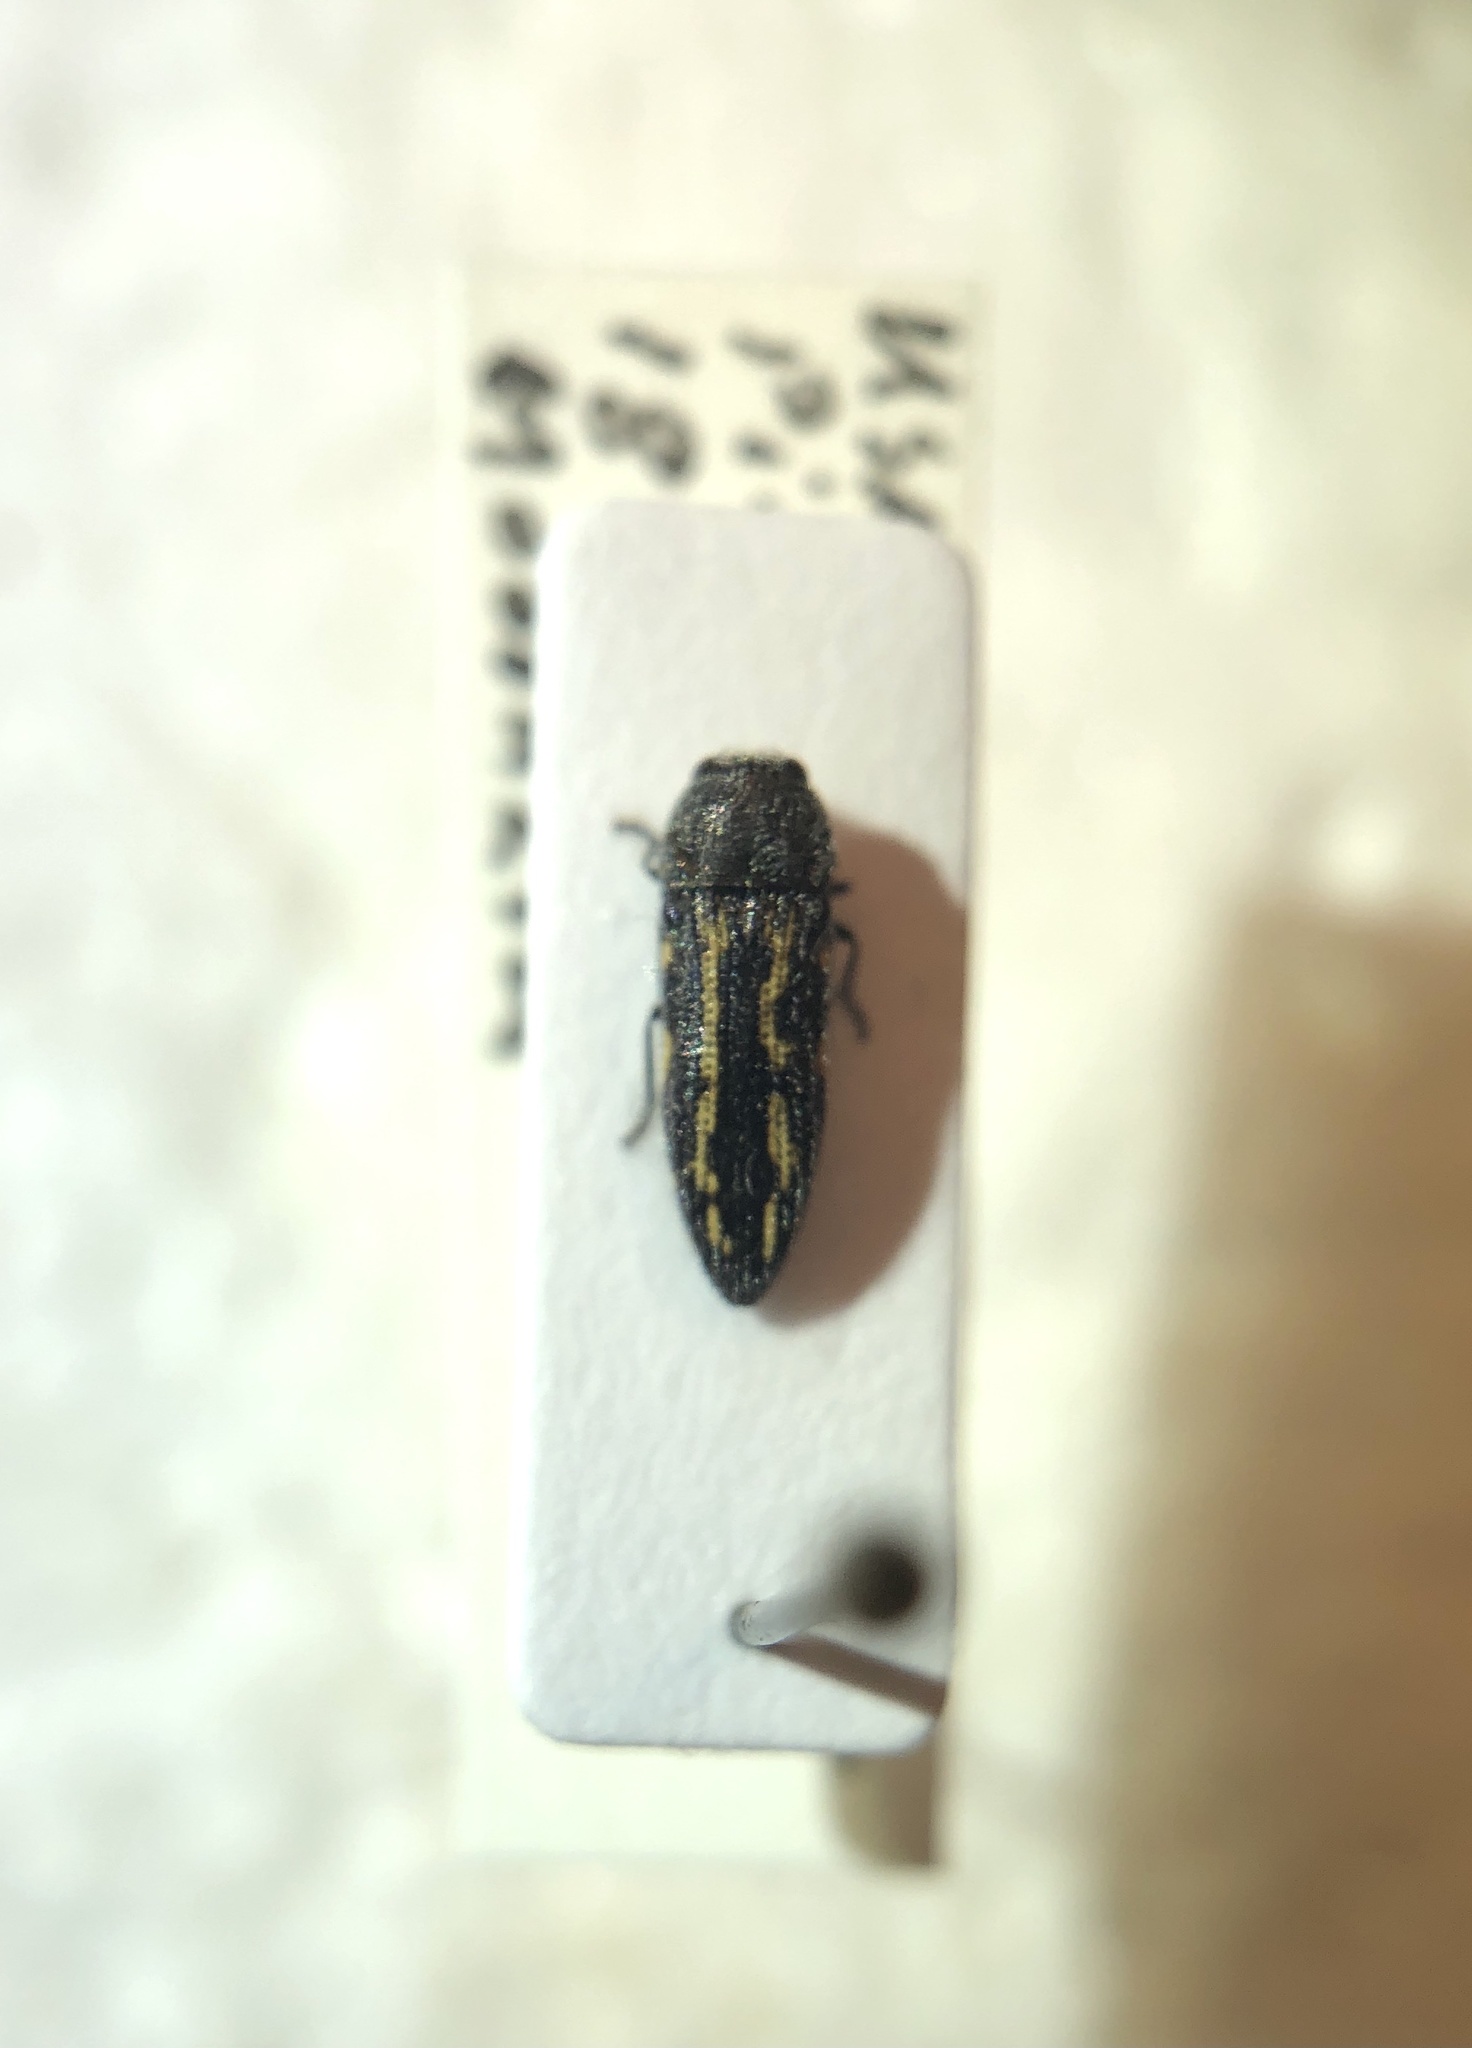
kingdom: Animalia
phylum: Arthropoda
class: Insecta
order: Coleoptera
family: Buprestidae
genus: Acmaeodera
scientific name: Acmaeodera vulturei
